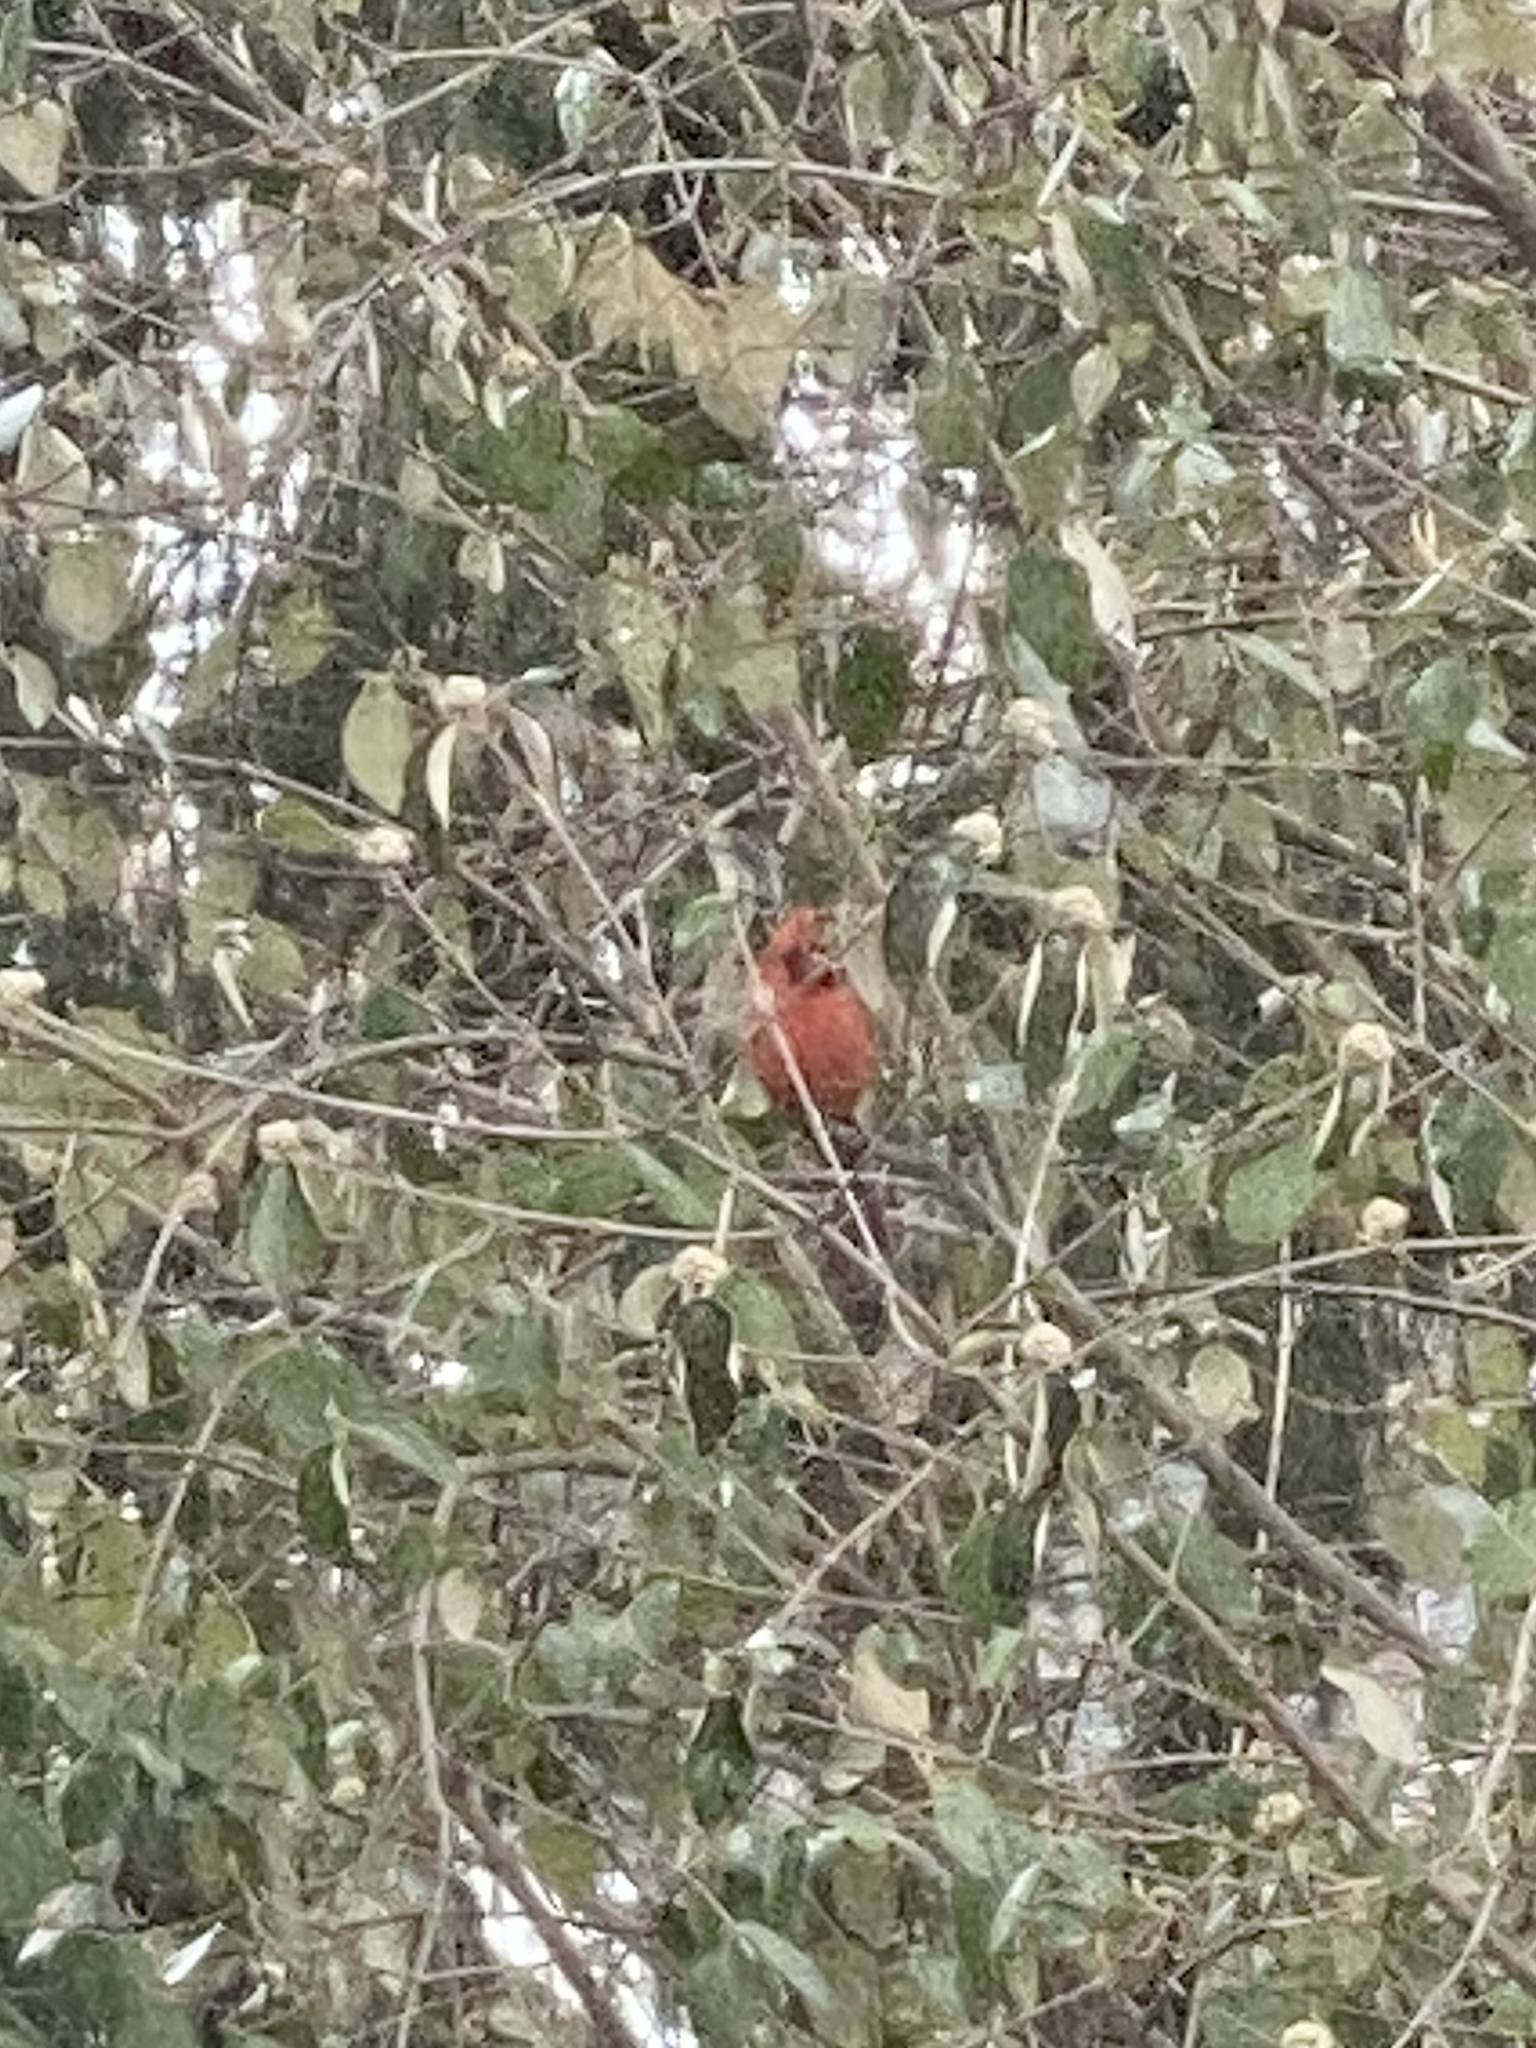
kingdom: Animalia
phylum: Chordata
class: Aves
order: Passeriformes
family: Cardinalidae
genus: Cardinalis
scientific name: Cardinalis cardinalis
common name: Northern cardinal
